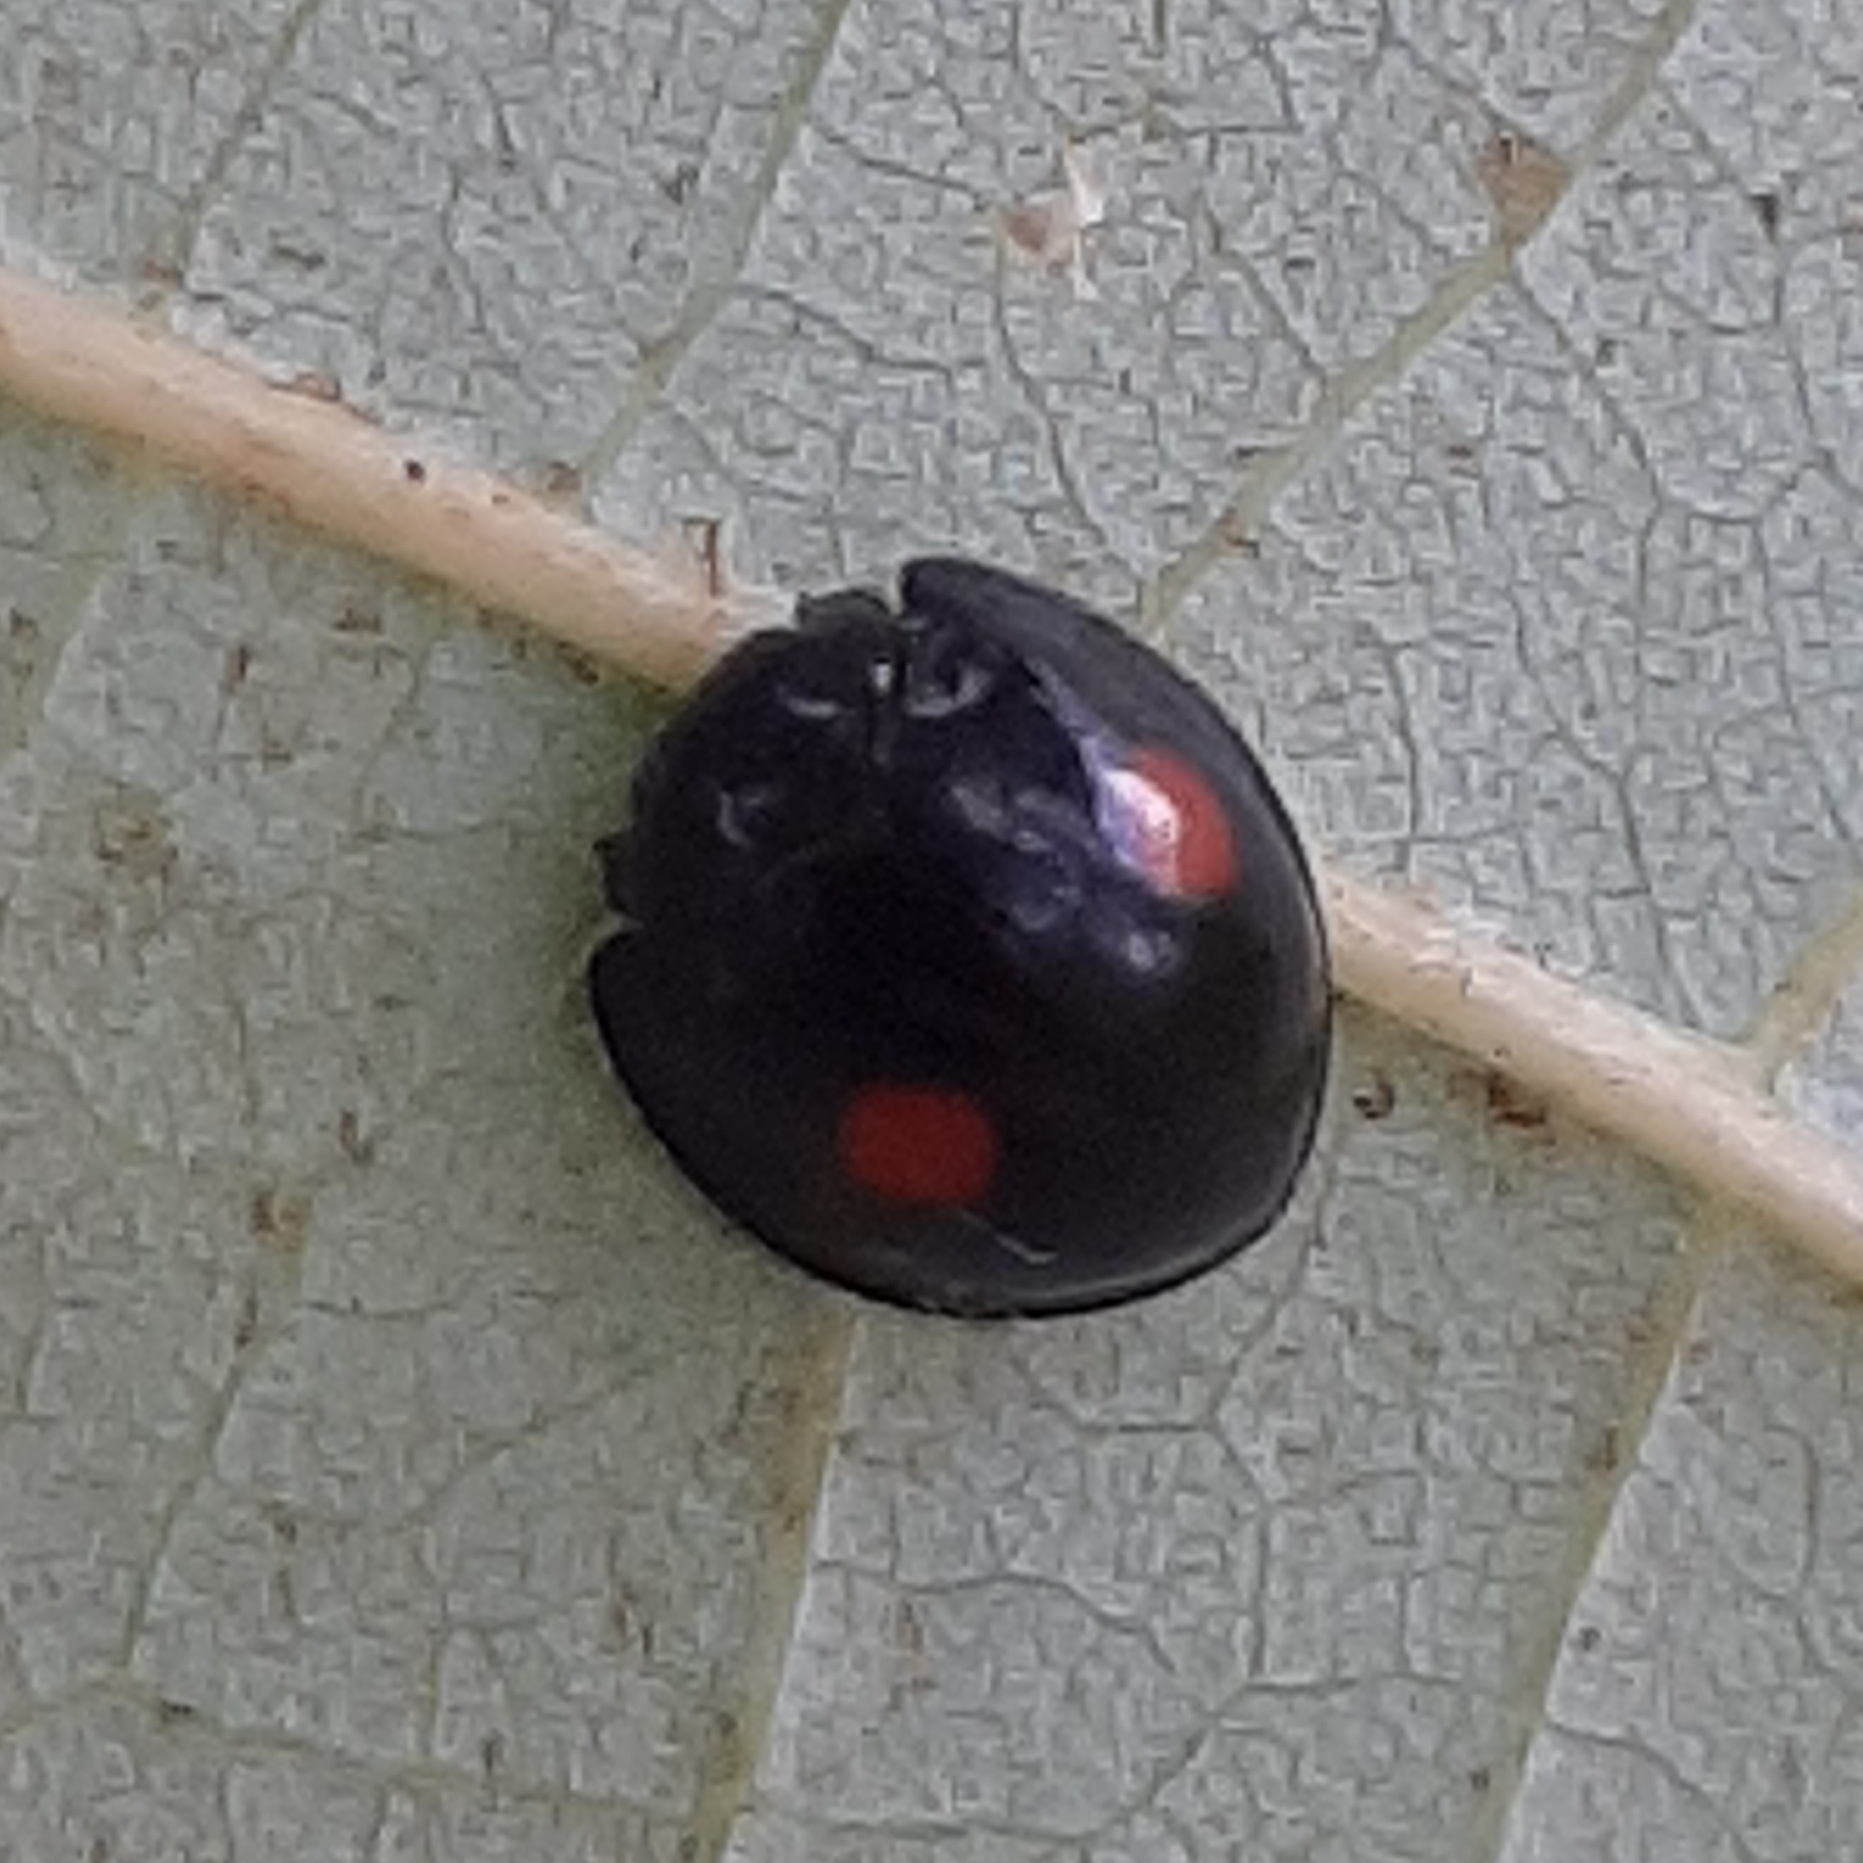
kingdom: Animalia
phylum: Arthropoda
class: Insecta
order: Coleoptera
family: Coccinellidae
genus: Chilocorus
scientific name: Chilocorus stigma
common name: Twicestabbed lady beetle
